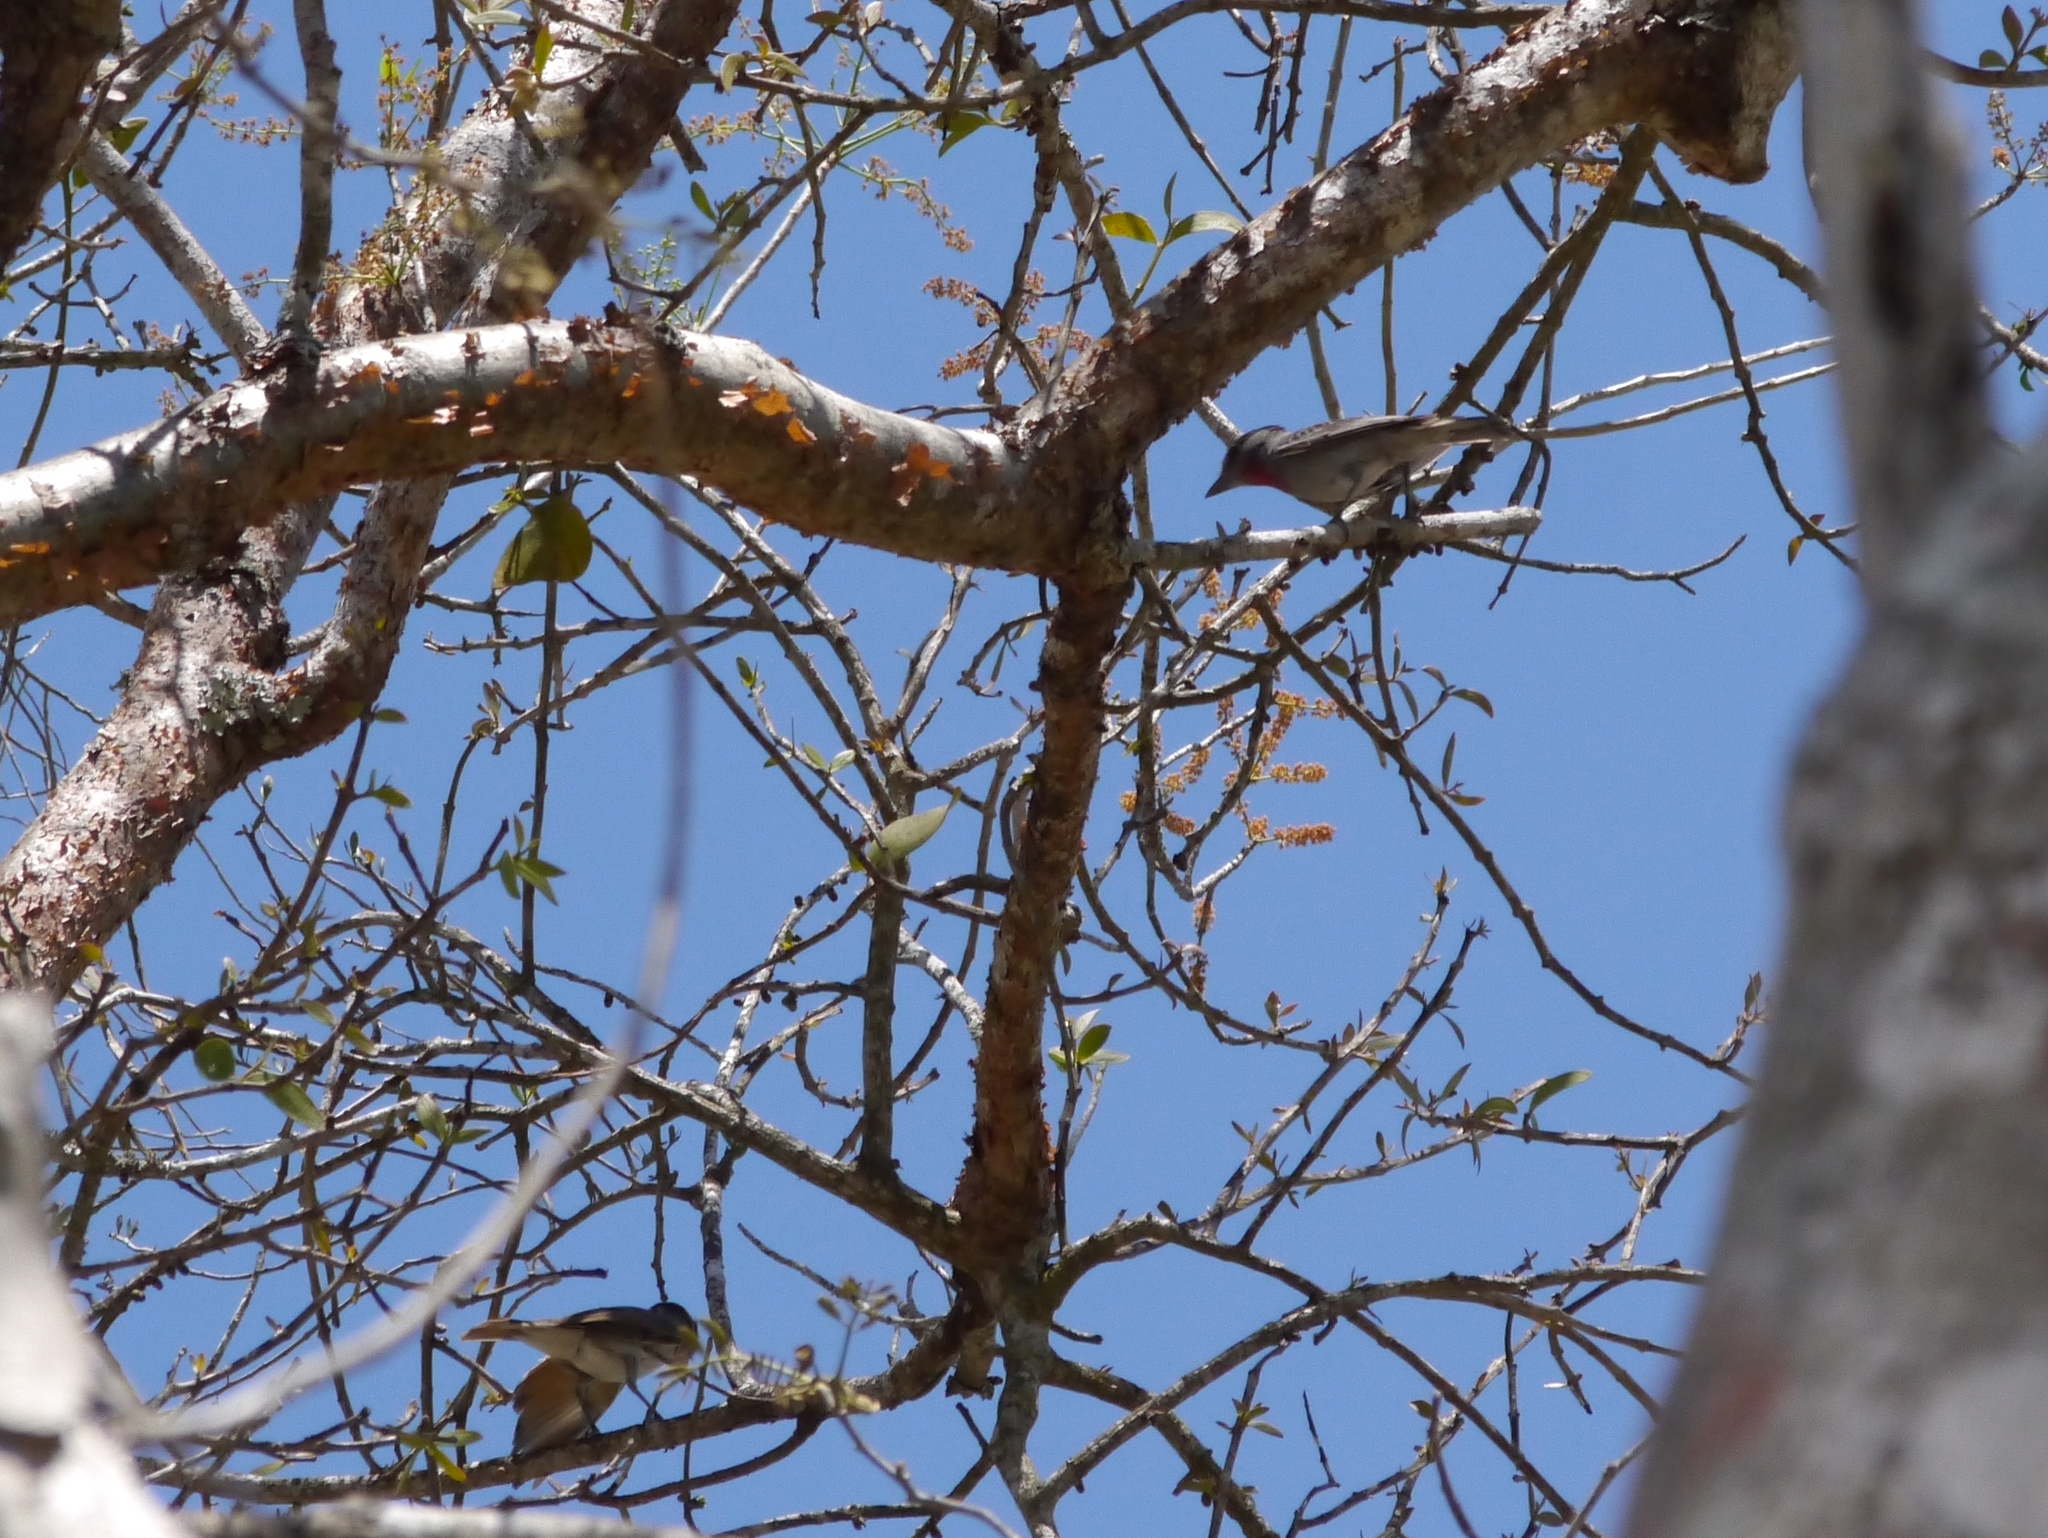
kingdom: Animalia
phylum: Chordata
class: Aves
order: Passeriformes
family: Cotingidae
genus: Pachyramphus
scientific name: Pachyramphus aglaiae
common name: Rose-throated becard
